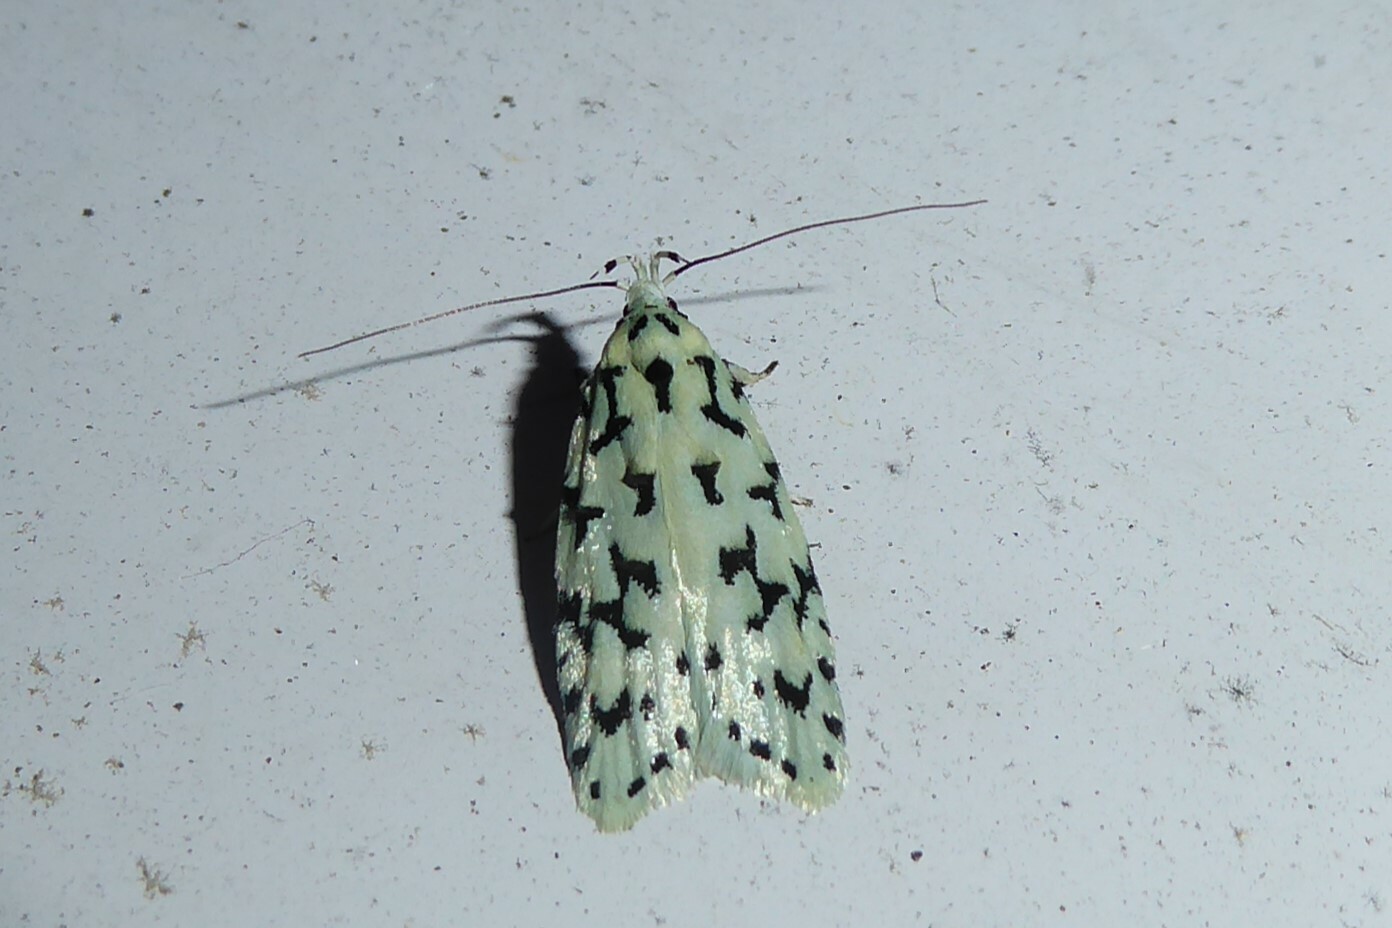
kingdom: Animalia
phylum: Arthropoda
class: Insecta
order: Lepidoptera
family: Oecophoridae
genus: Izatha
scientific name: Izatha huttoni
